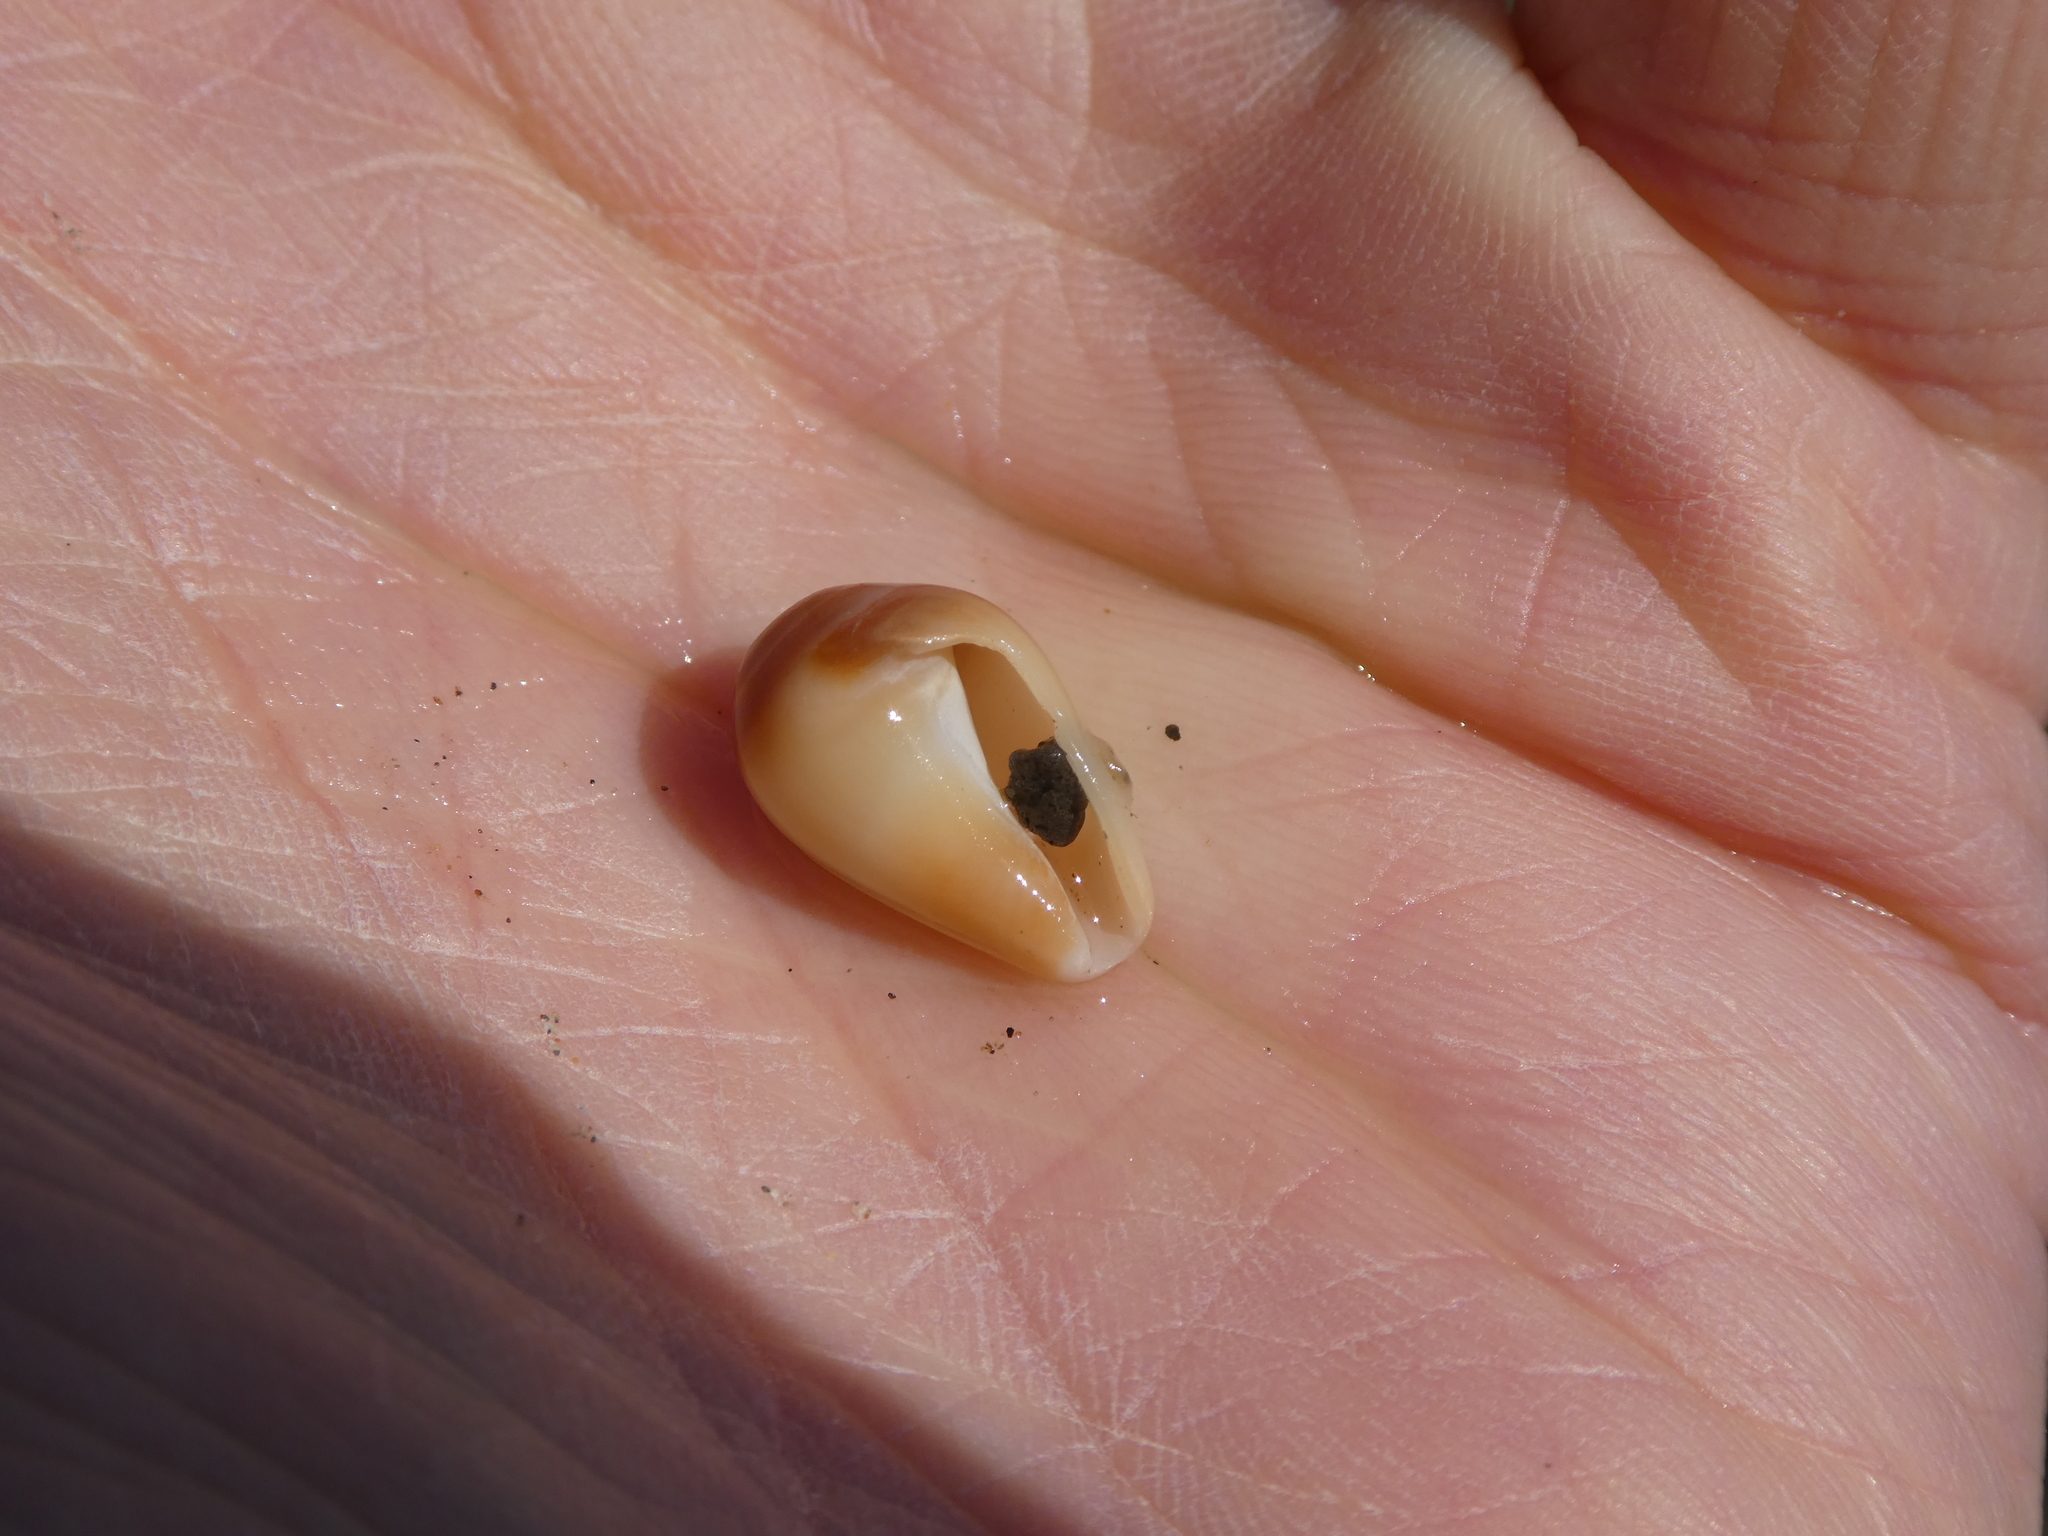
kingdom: Animalia
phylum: Mollusca
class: Gastropoda
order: Neogastropoda
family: Conidae
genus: Californiconus
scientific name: Californiconus californicus
